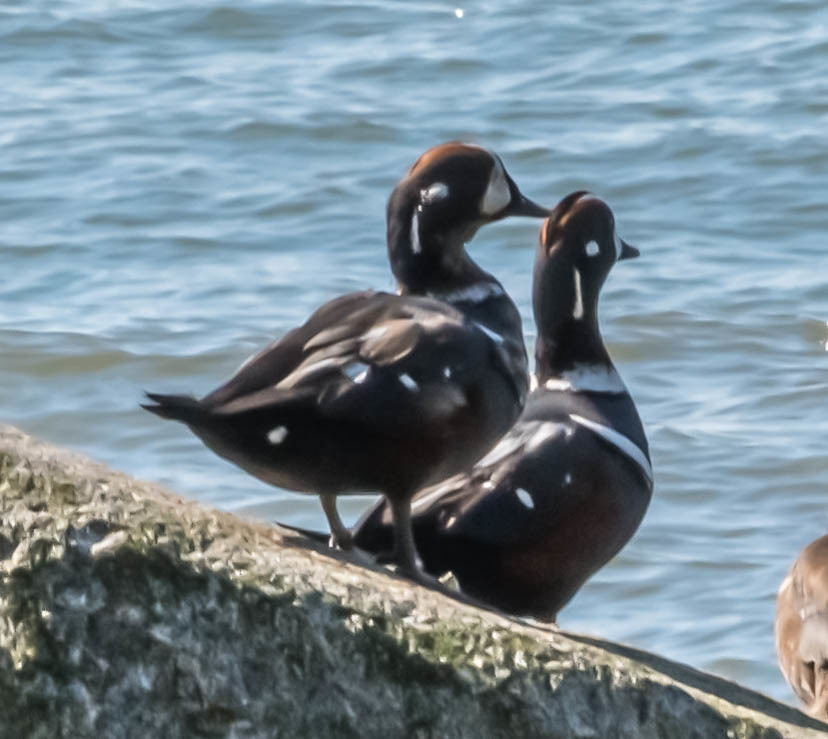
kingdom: Animalia
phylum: Chordata
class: Aves
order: Anseriformes
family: Anatidae
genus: Histrionicus
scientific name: Histrionicus histrionicus
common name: Harlequin duck
